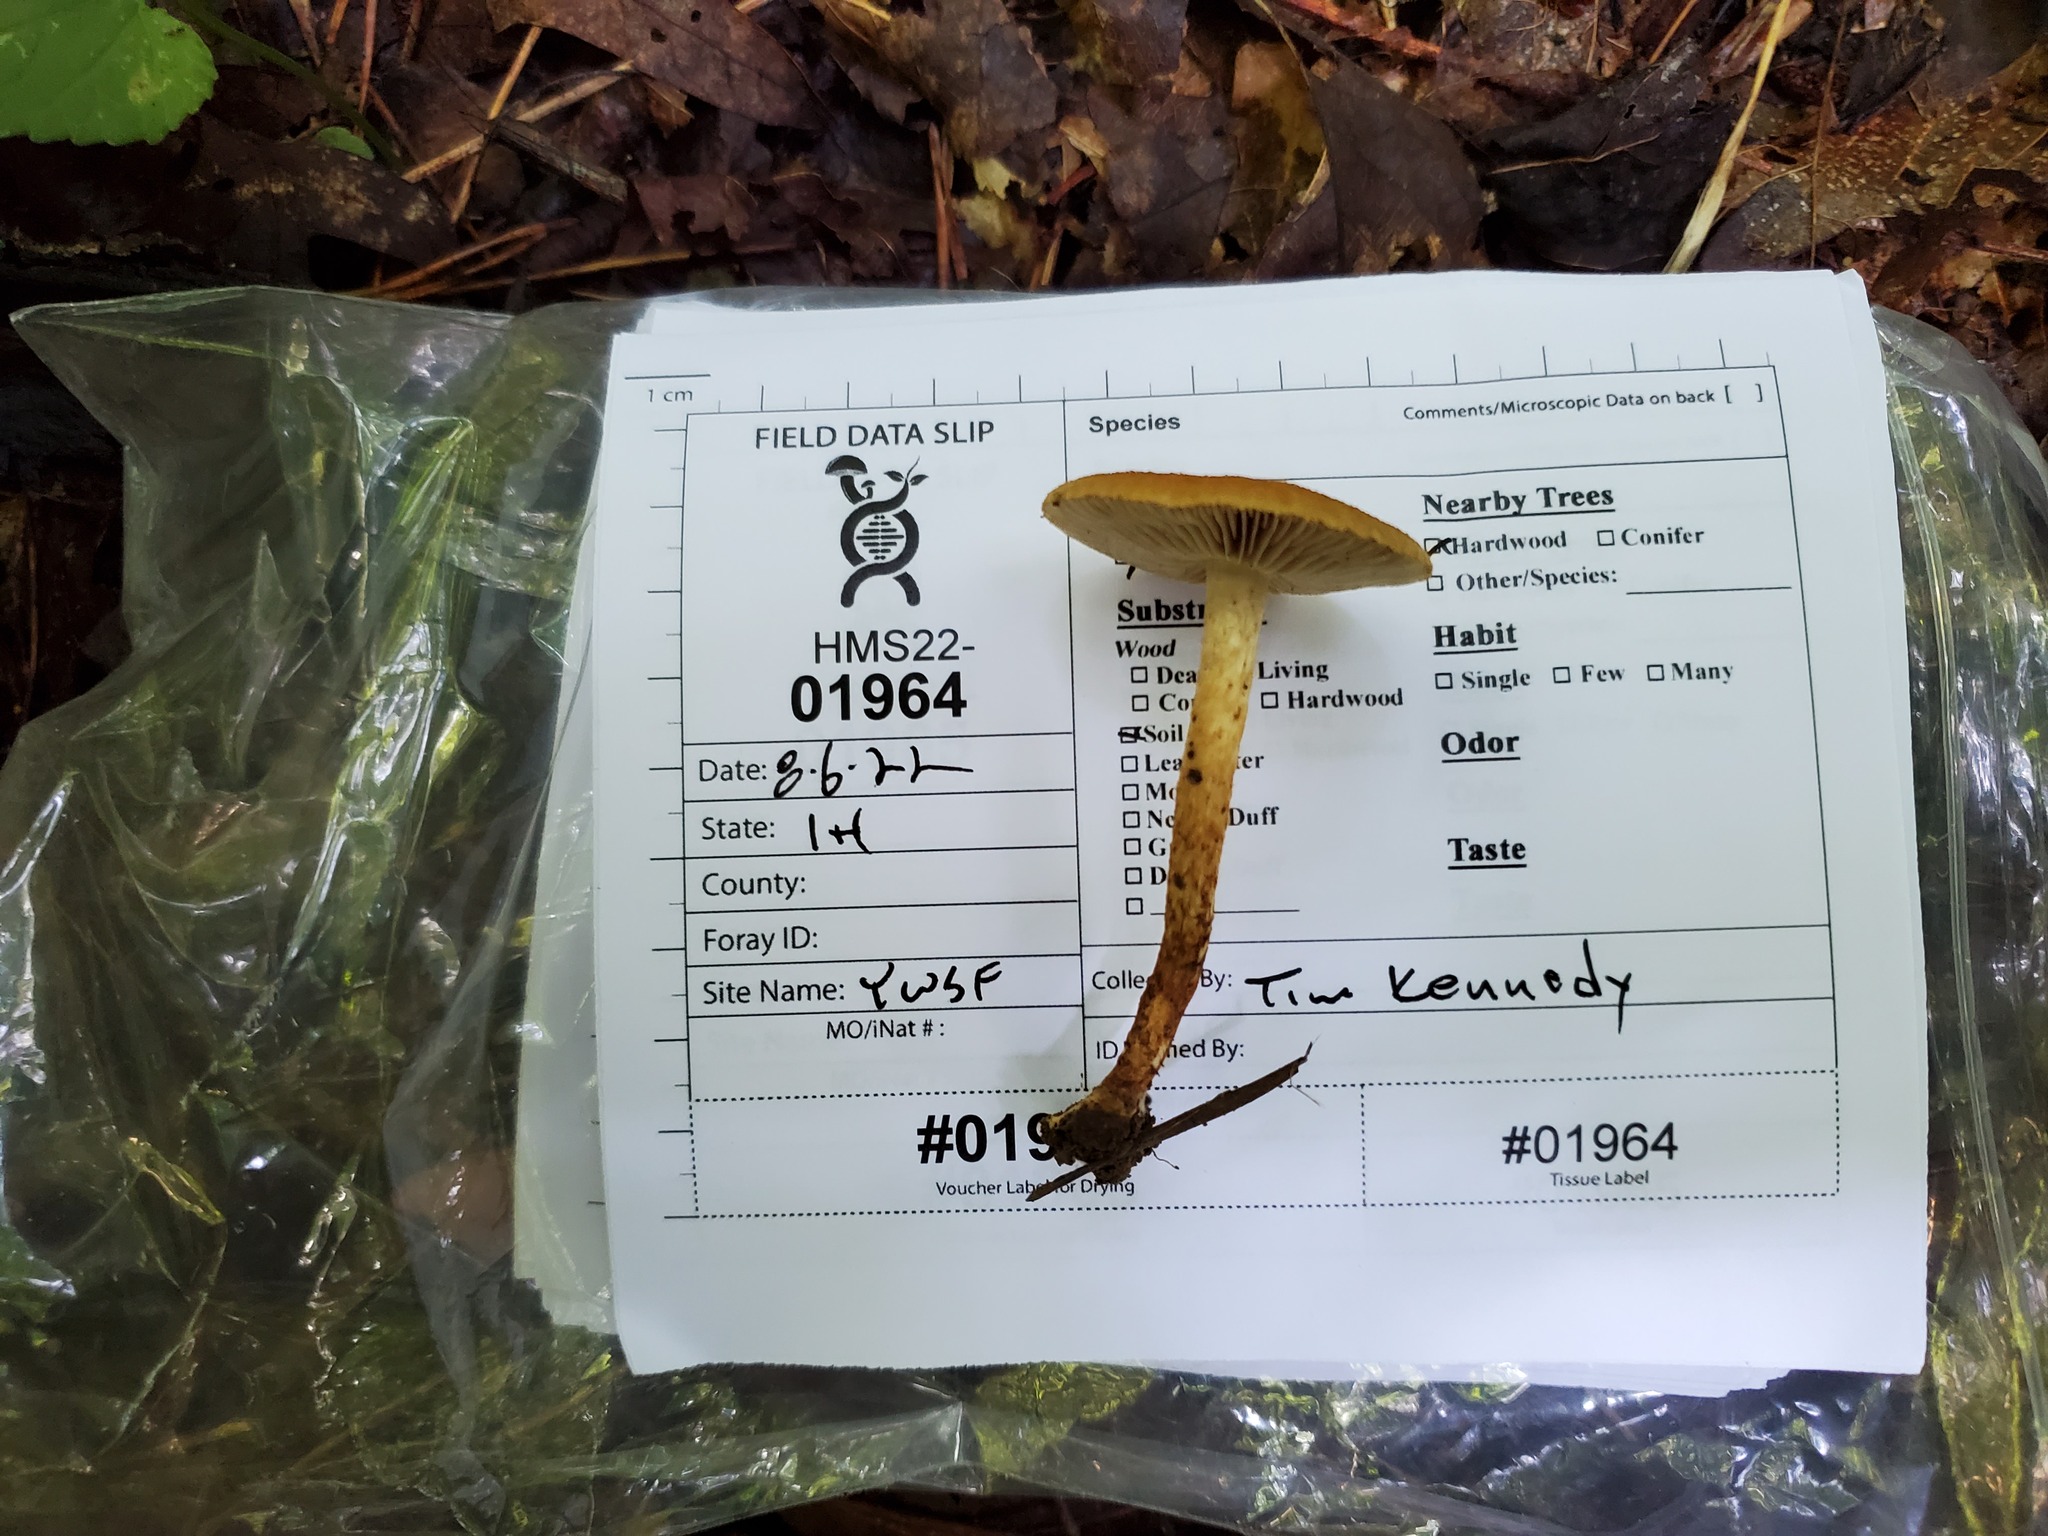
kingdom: Fungi
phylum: Basidiomycota
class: Agaricomycetes
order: Agaricales
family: Inocybaceae
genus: Mallocybe
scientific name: Mallocybe unicolor
